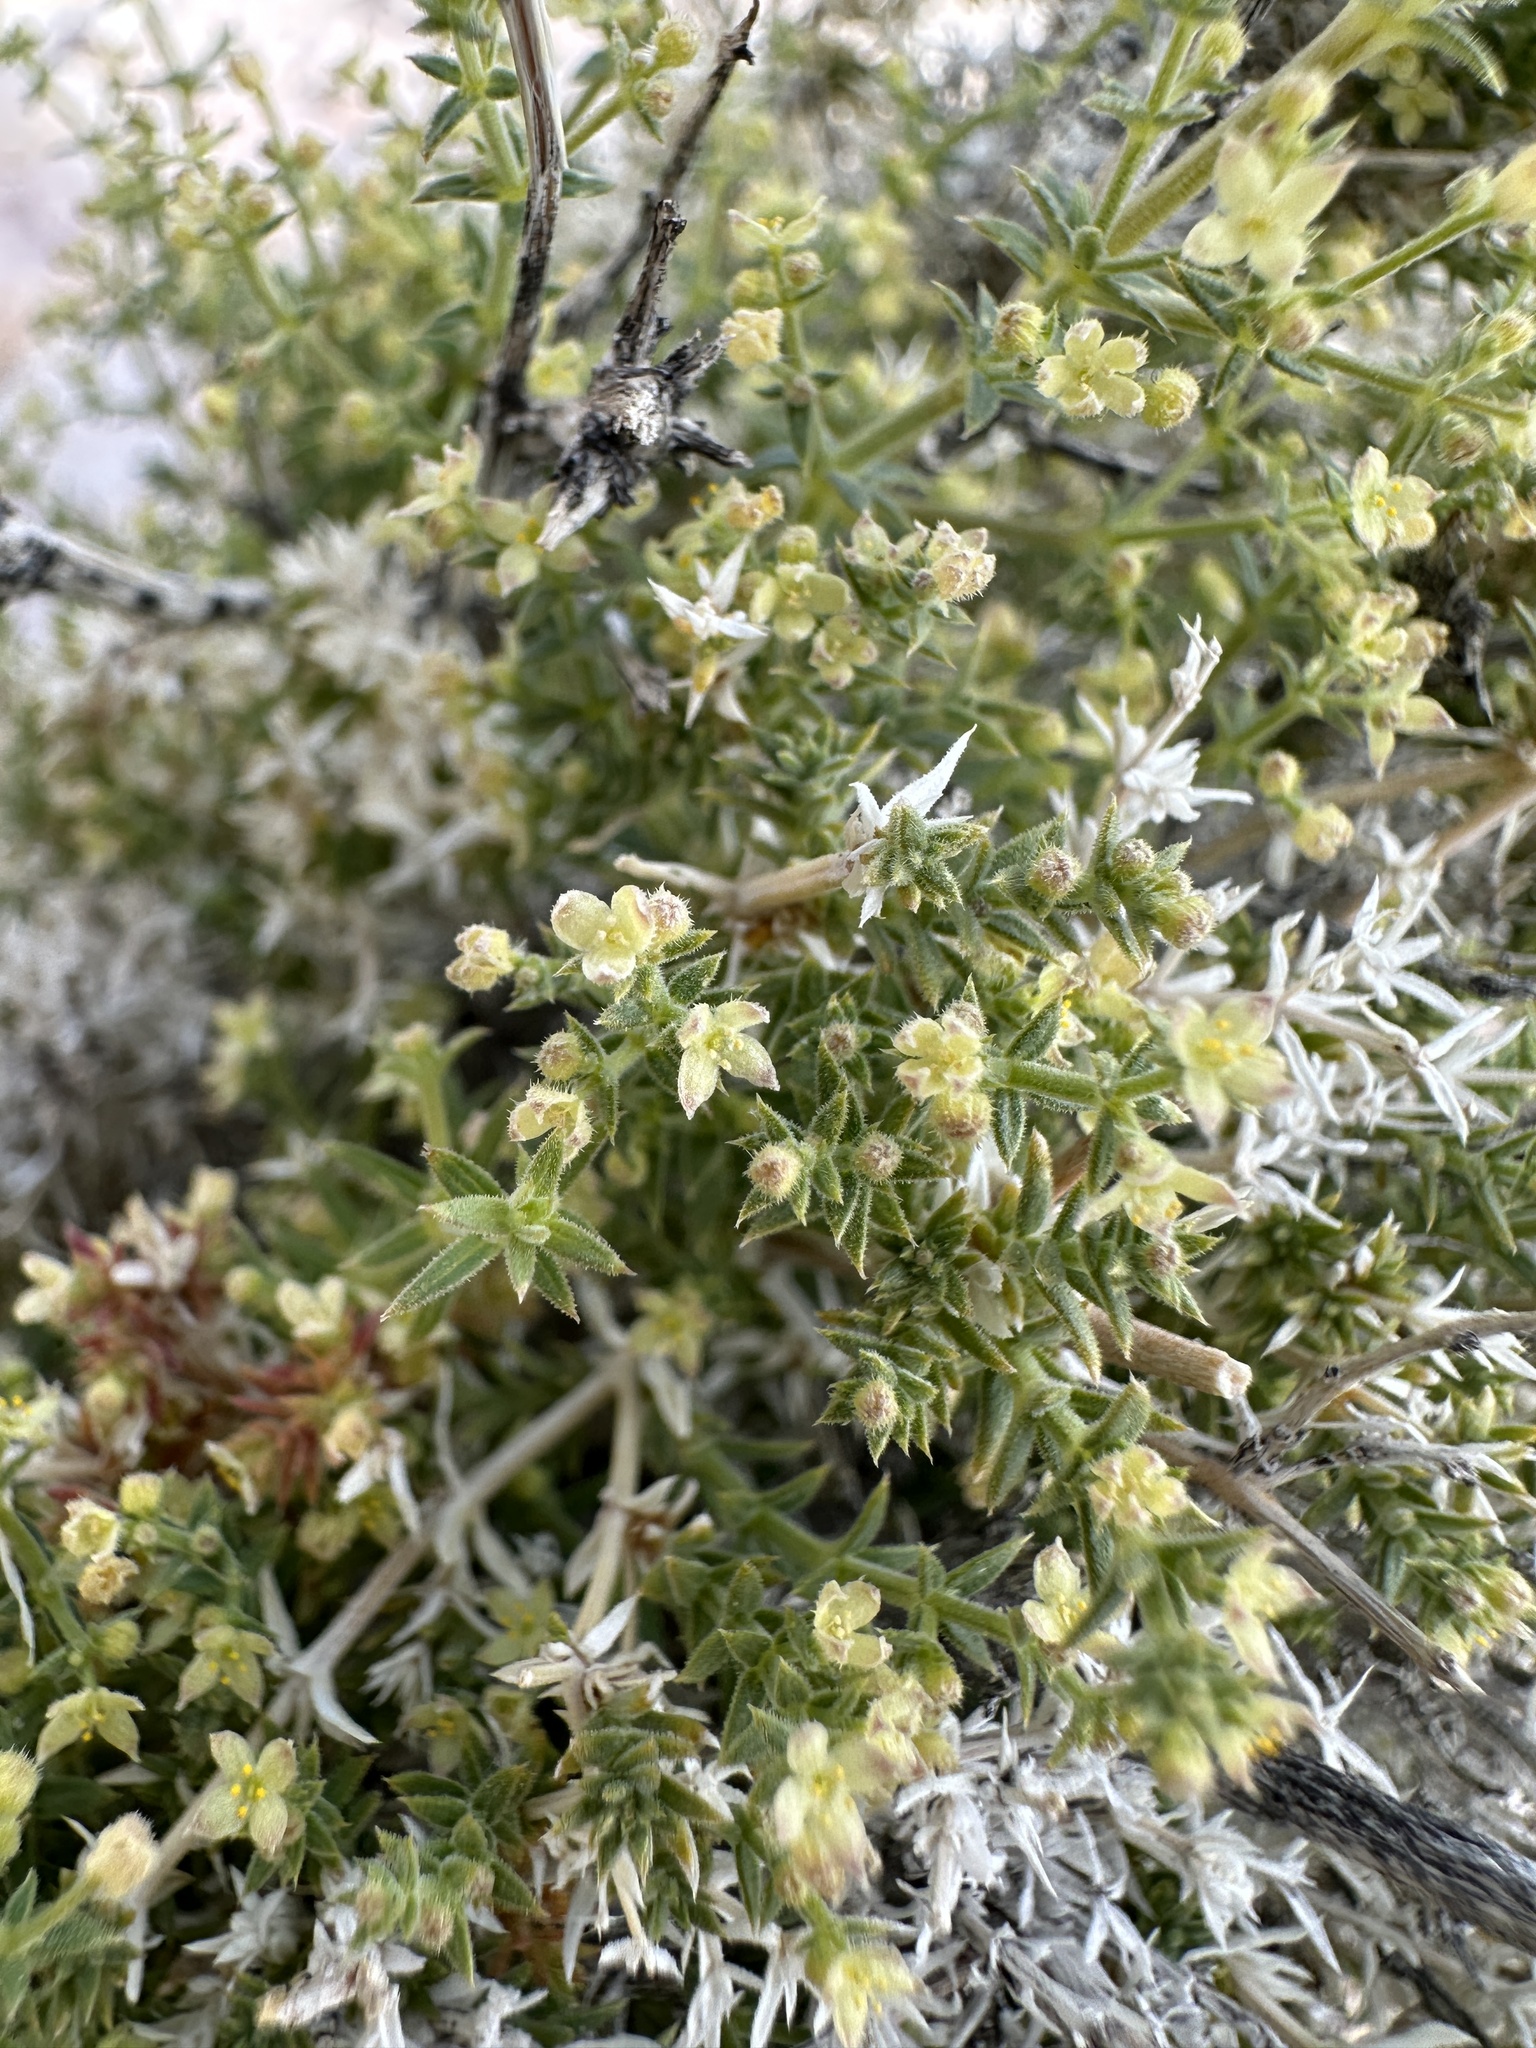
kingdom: Plantae
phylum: Tracheophyta
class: Magnoliopsida
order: Gentianales
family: Rubiaceae
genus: Galium
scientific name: Galium stellatum
